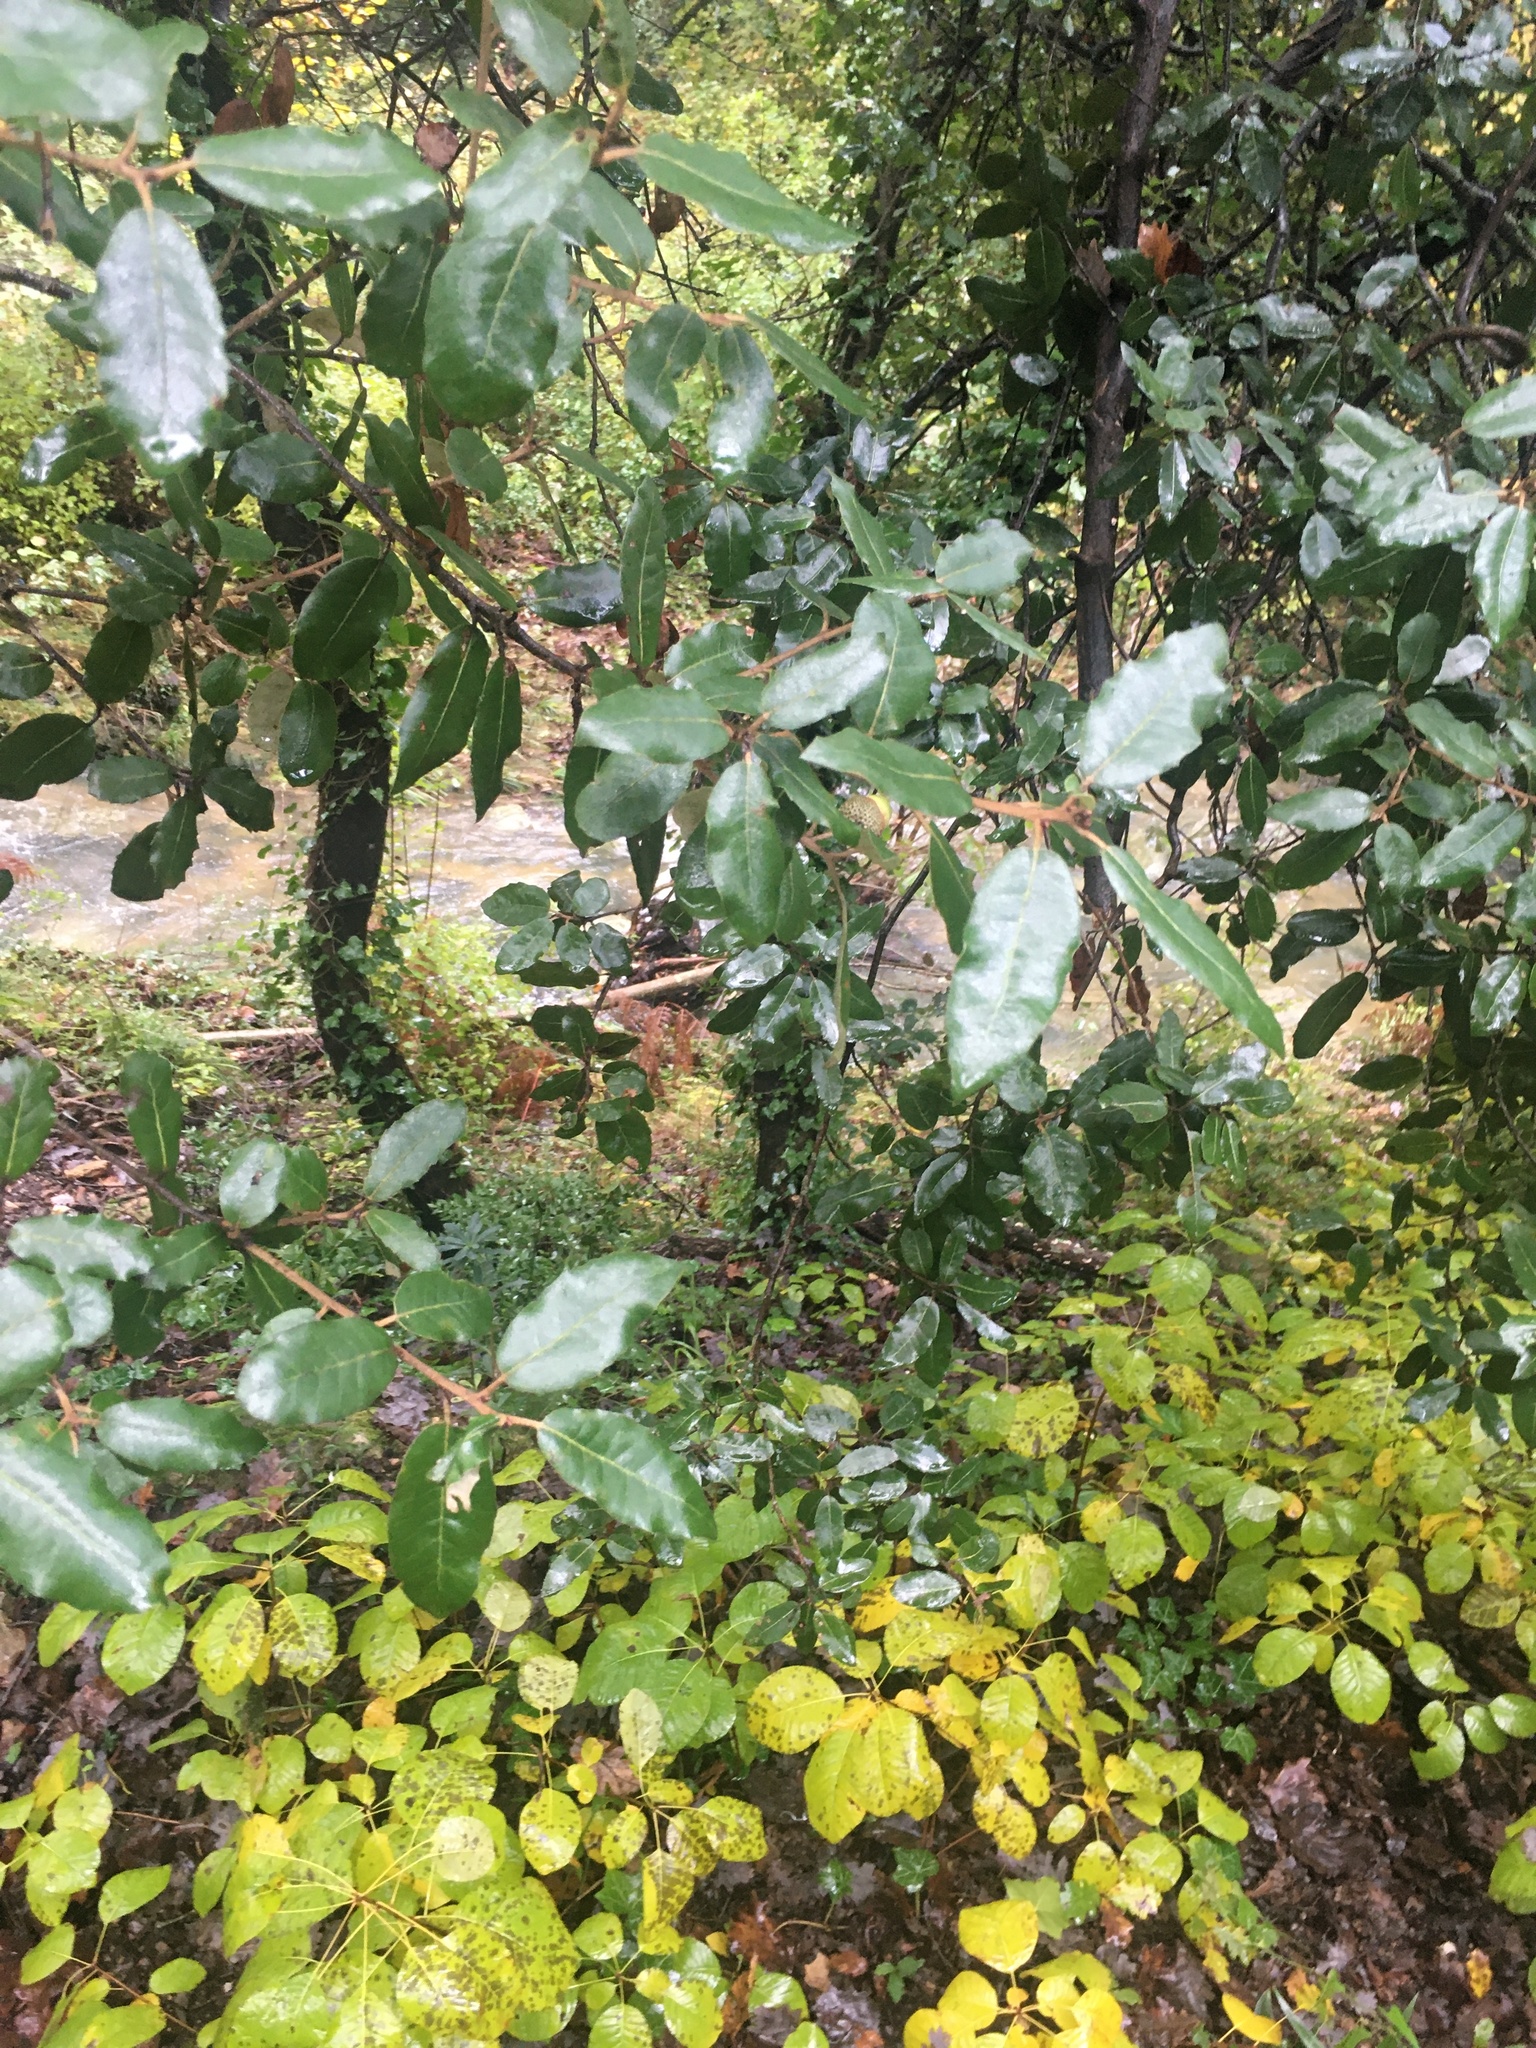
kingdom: Plantae
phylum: Tracheophyta
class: Magnoliopsida
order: Fagales
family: Fagaceae
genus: Quercus
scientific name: Quercus suber
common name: Cork oak
